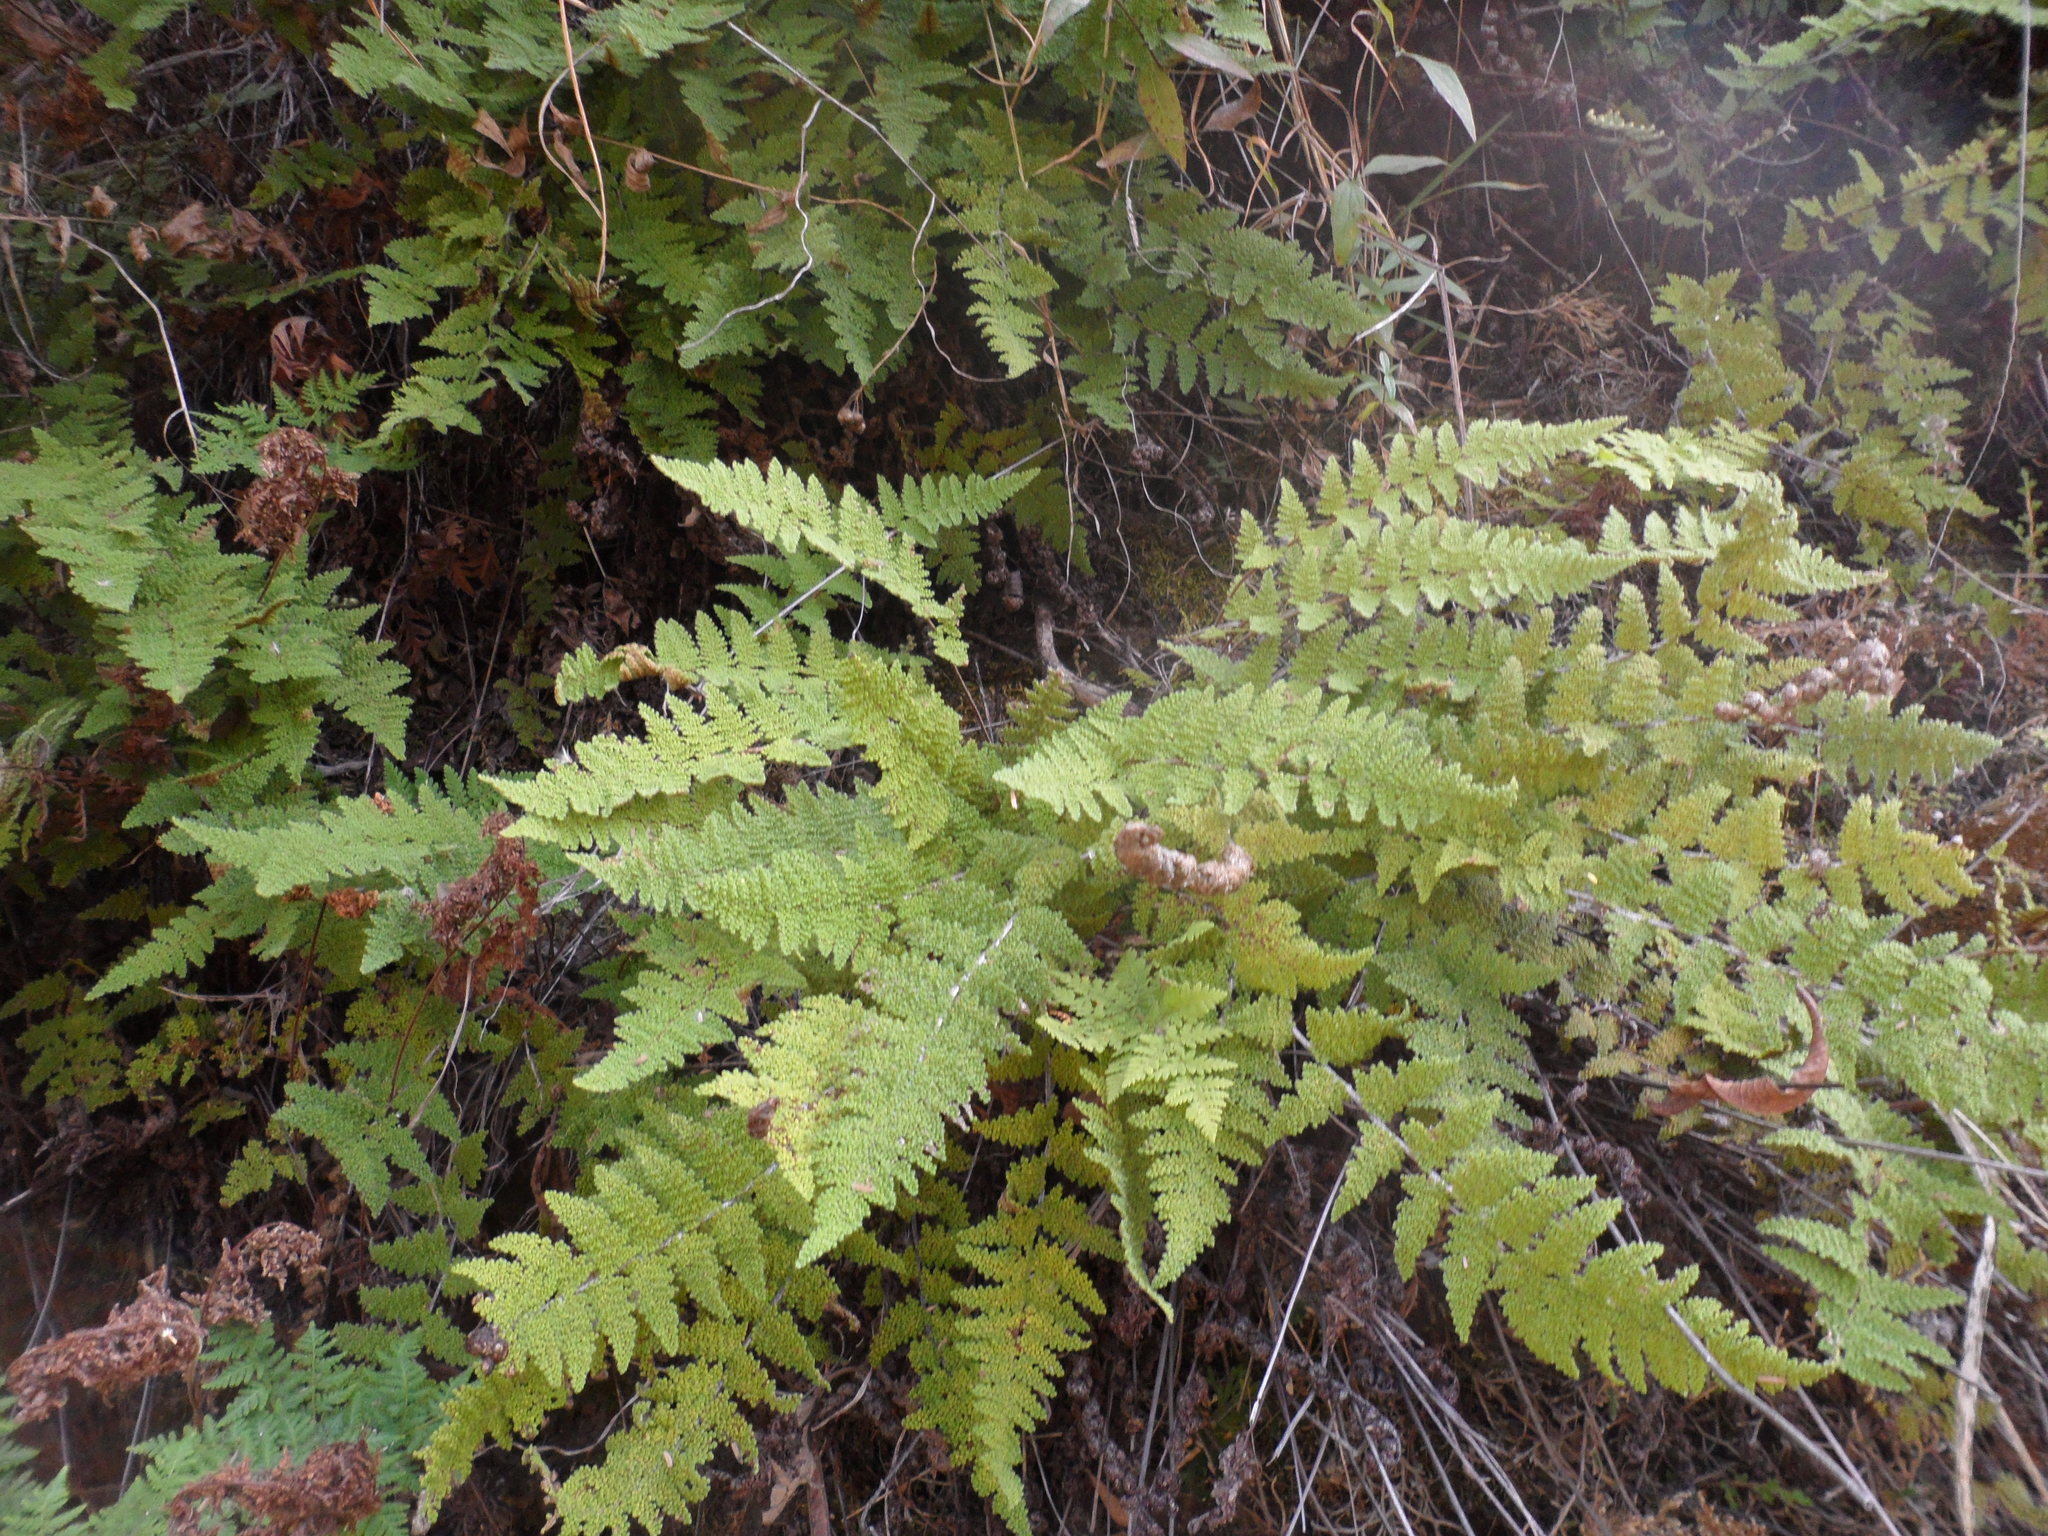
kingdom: Plantae
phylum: Tracheophyta
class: Polypodiopsida
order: Polypodiales
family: Pteridaceae
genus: Myriopteris
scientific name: Myriopteris myriophylla
